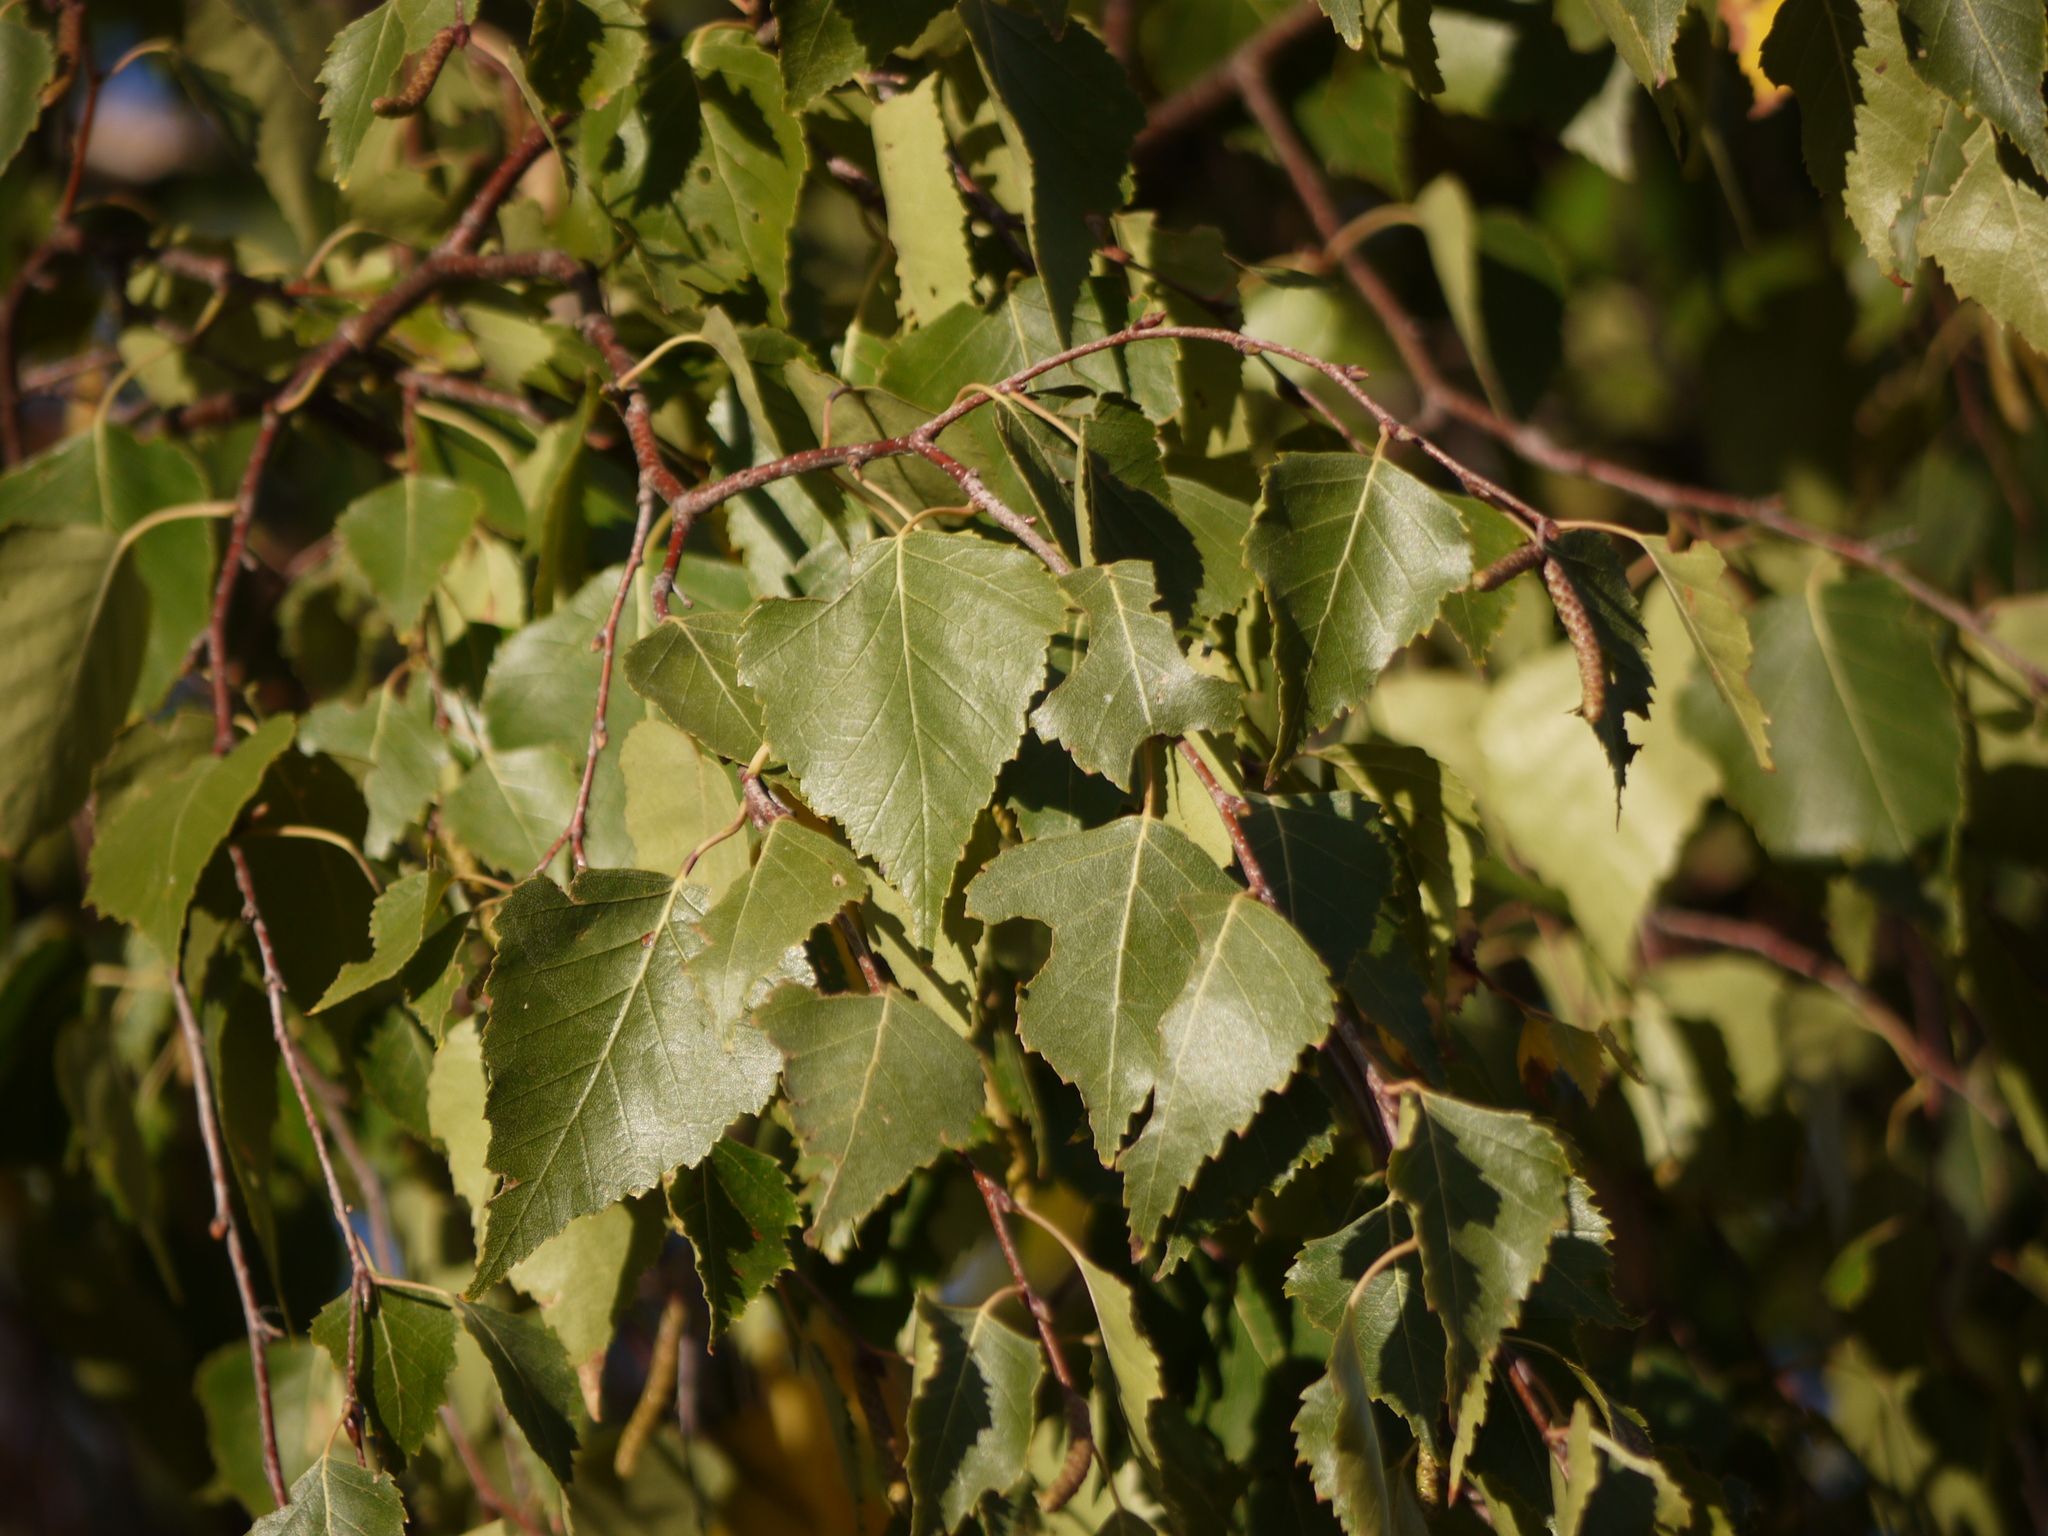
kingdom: Plantae
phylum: Tracheophyta
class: Magnoliopsida
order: Fagales
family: Betulaceae
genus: Betula
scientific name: Betula pendula
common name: Silver birch
